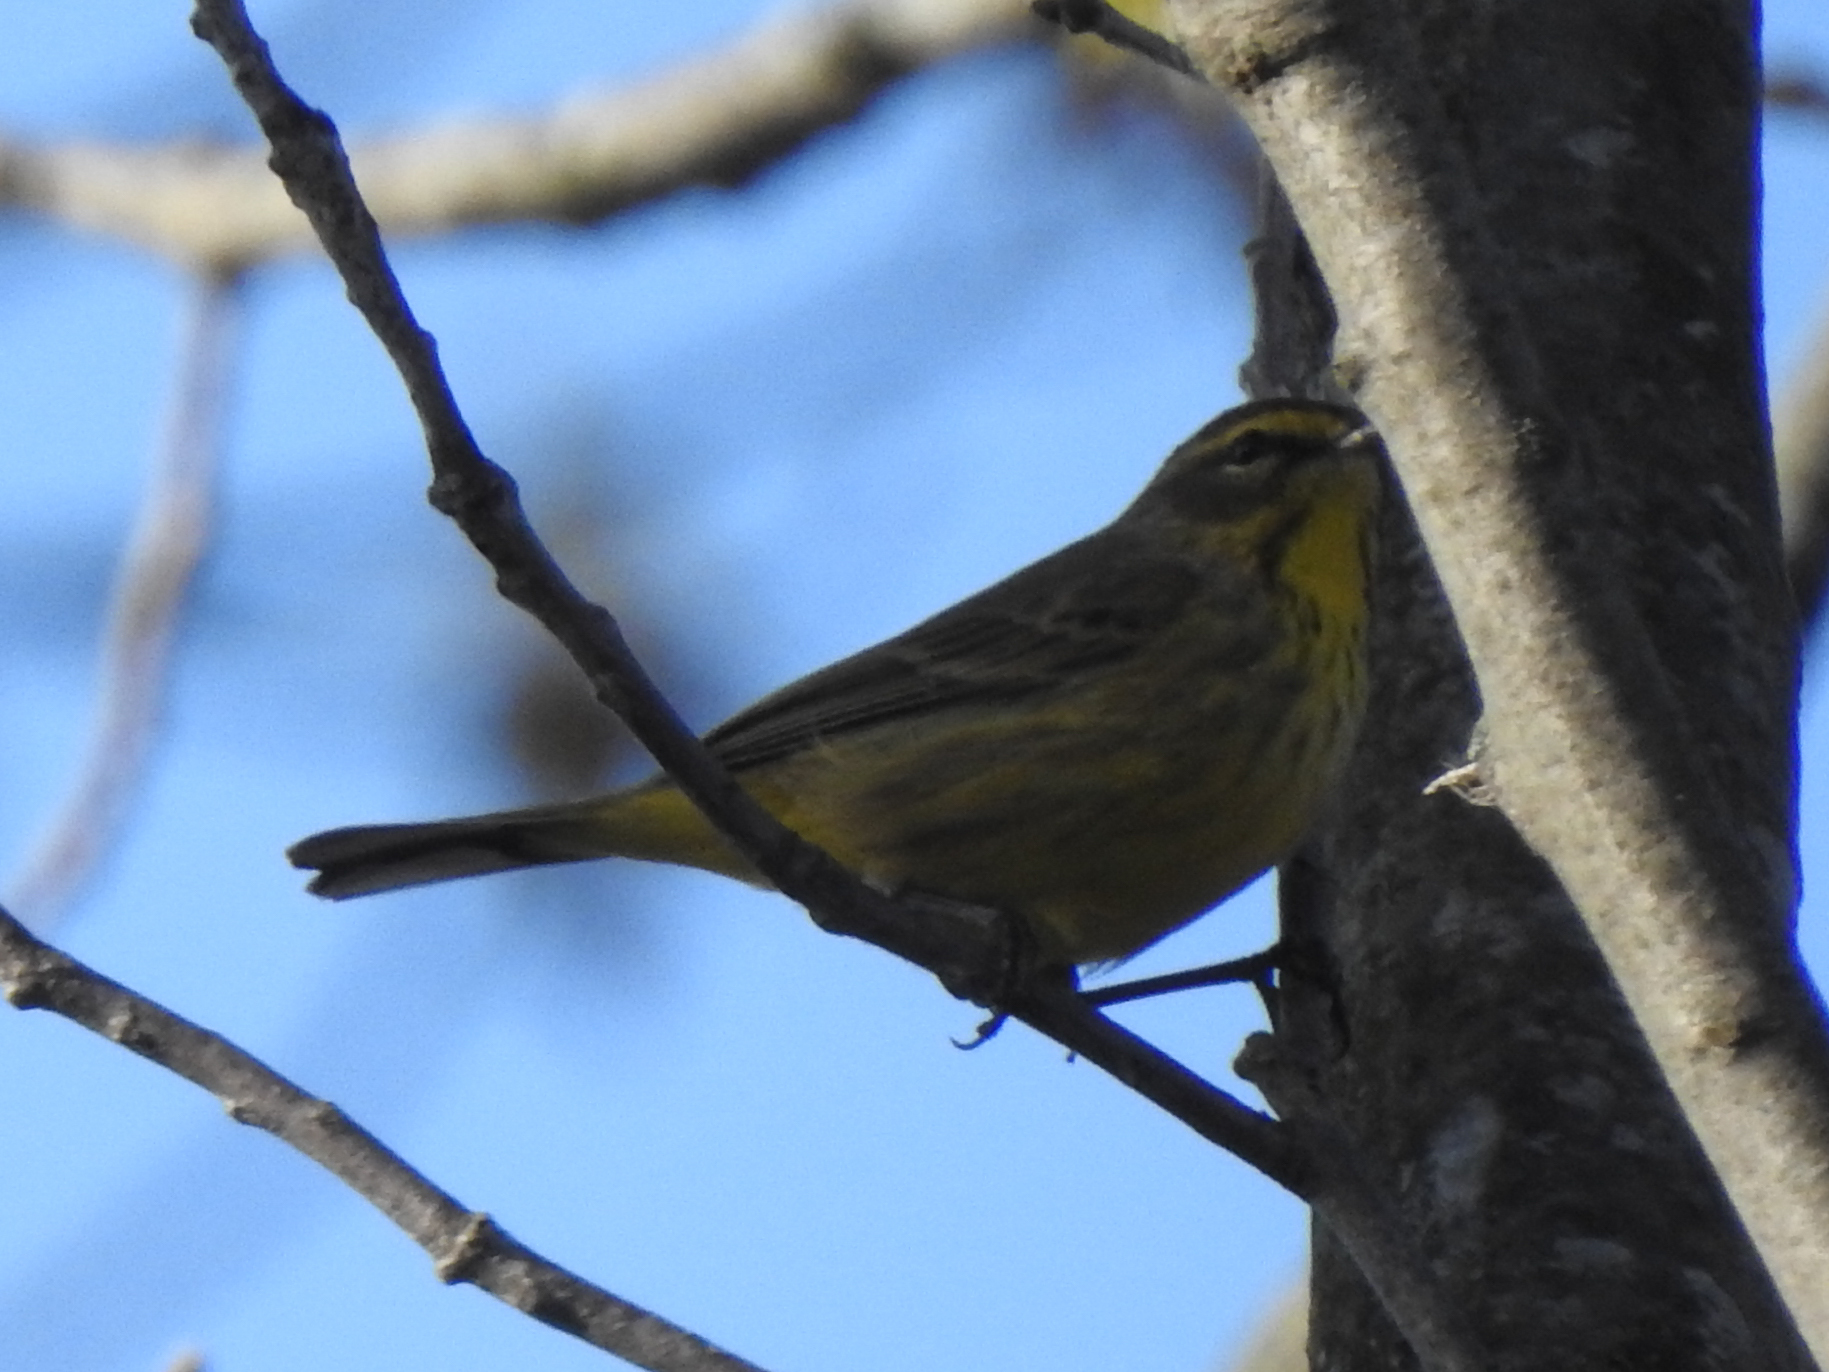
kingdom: Animalia
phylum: Chordata
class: Aves
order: Passeriformes
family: Parulidae
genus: Setophaga
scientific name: Setophaga palmarum
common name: Palm warbler
